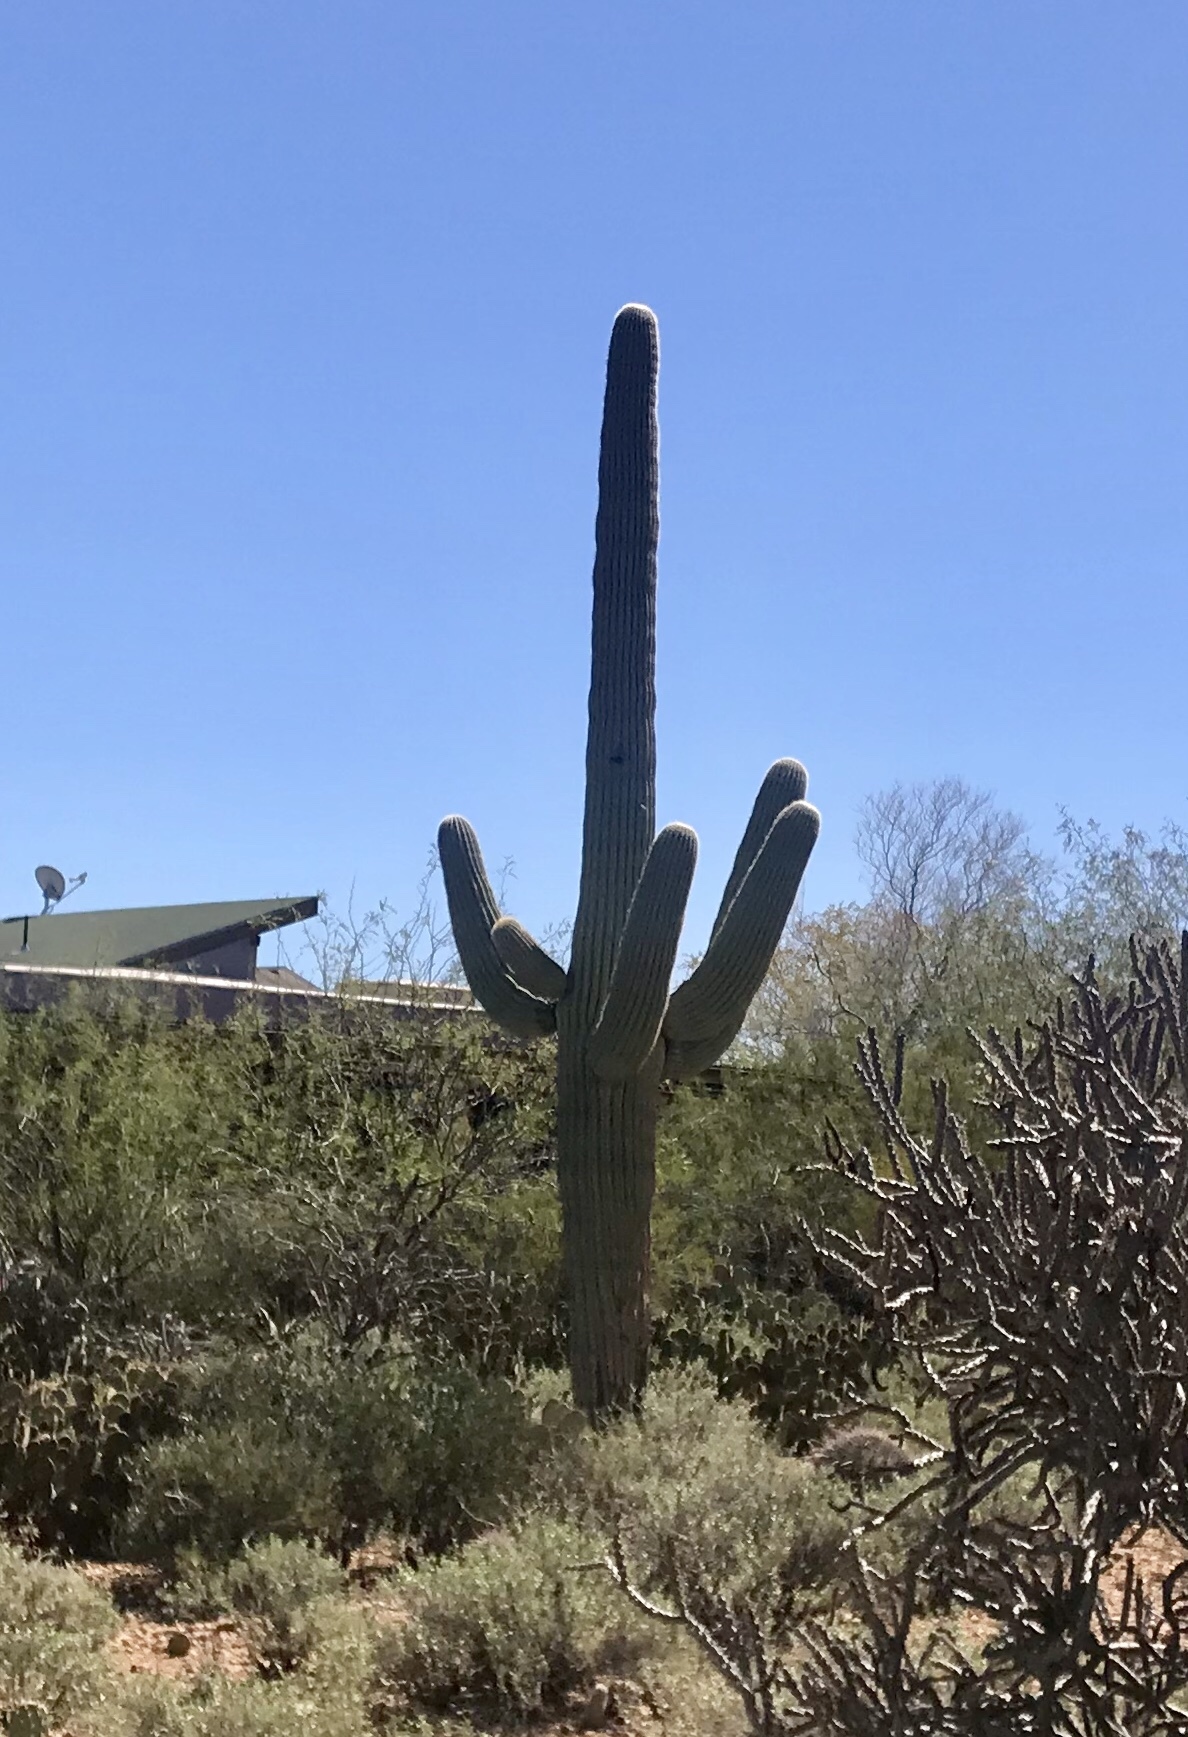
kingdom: Plantae
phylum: Tracheophyta
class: Magnoliopsida
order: Caryophyllales
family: Cactaceae
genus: Carnegiea
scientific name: Carnegiea gigantea
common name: Saguaro
